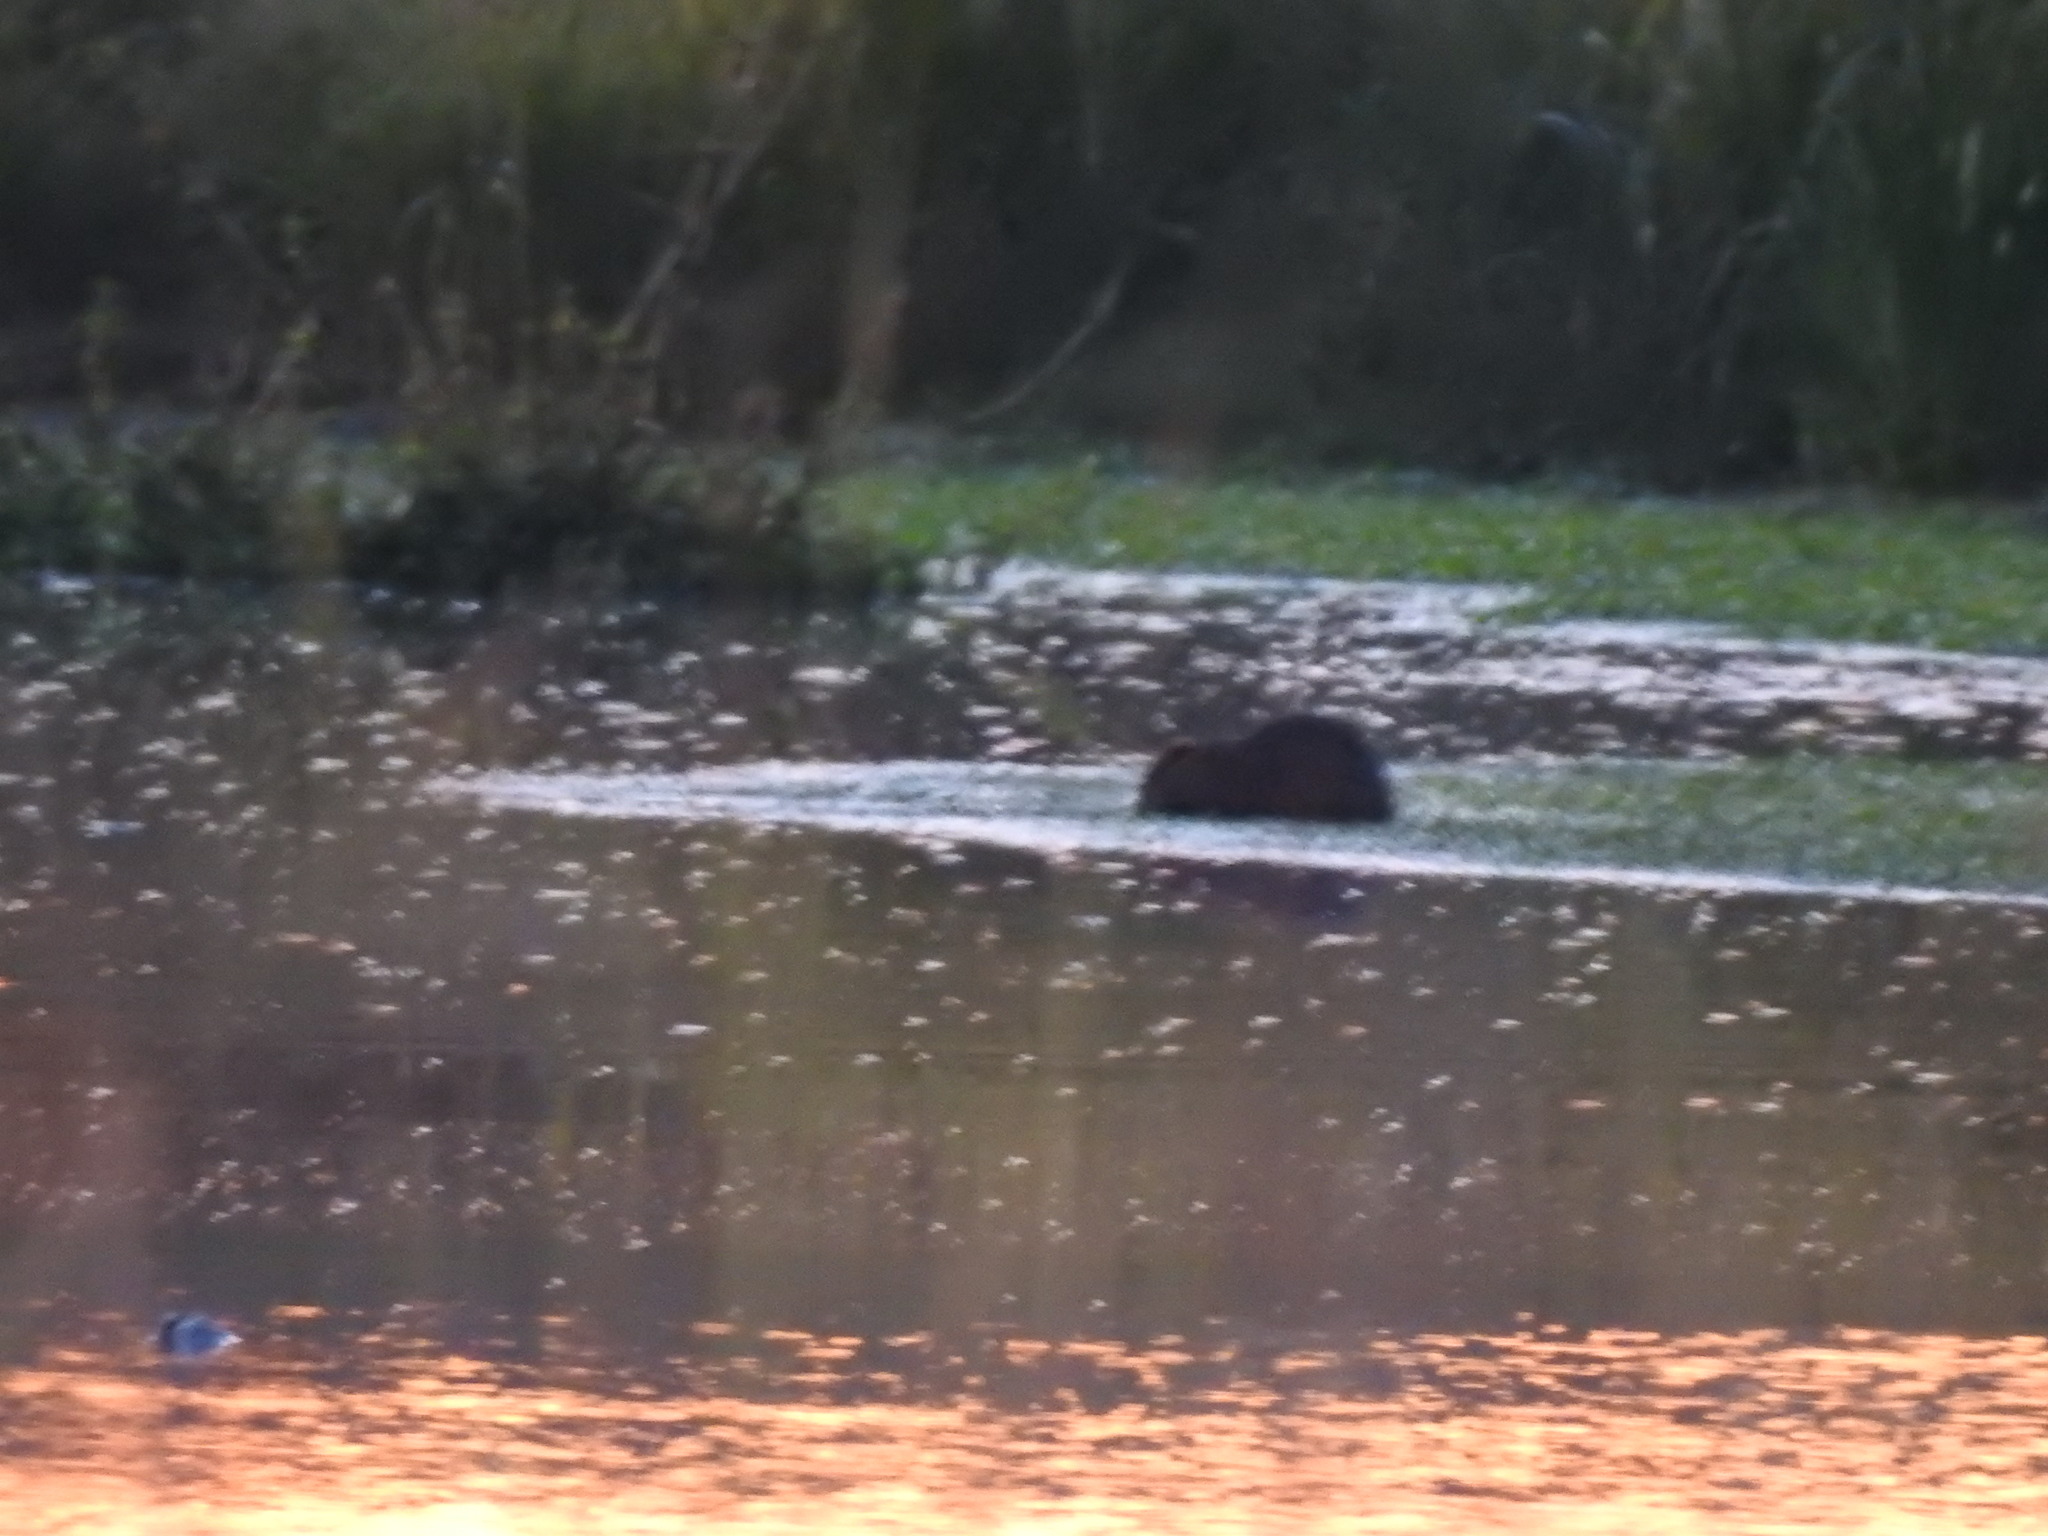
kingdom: Animalia
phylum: Chordata
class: Mammalia
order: Rodentia
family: Myocastoridae
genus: Myocastor
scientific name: Myocastor coypus
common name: Coypu
